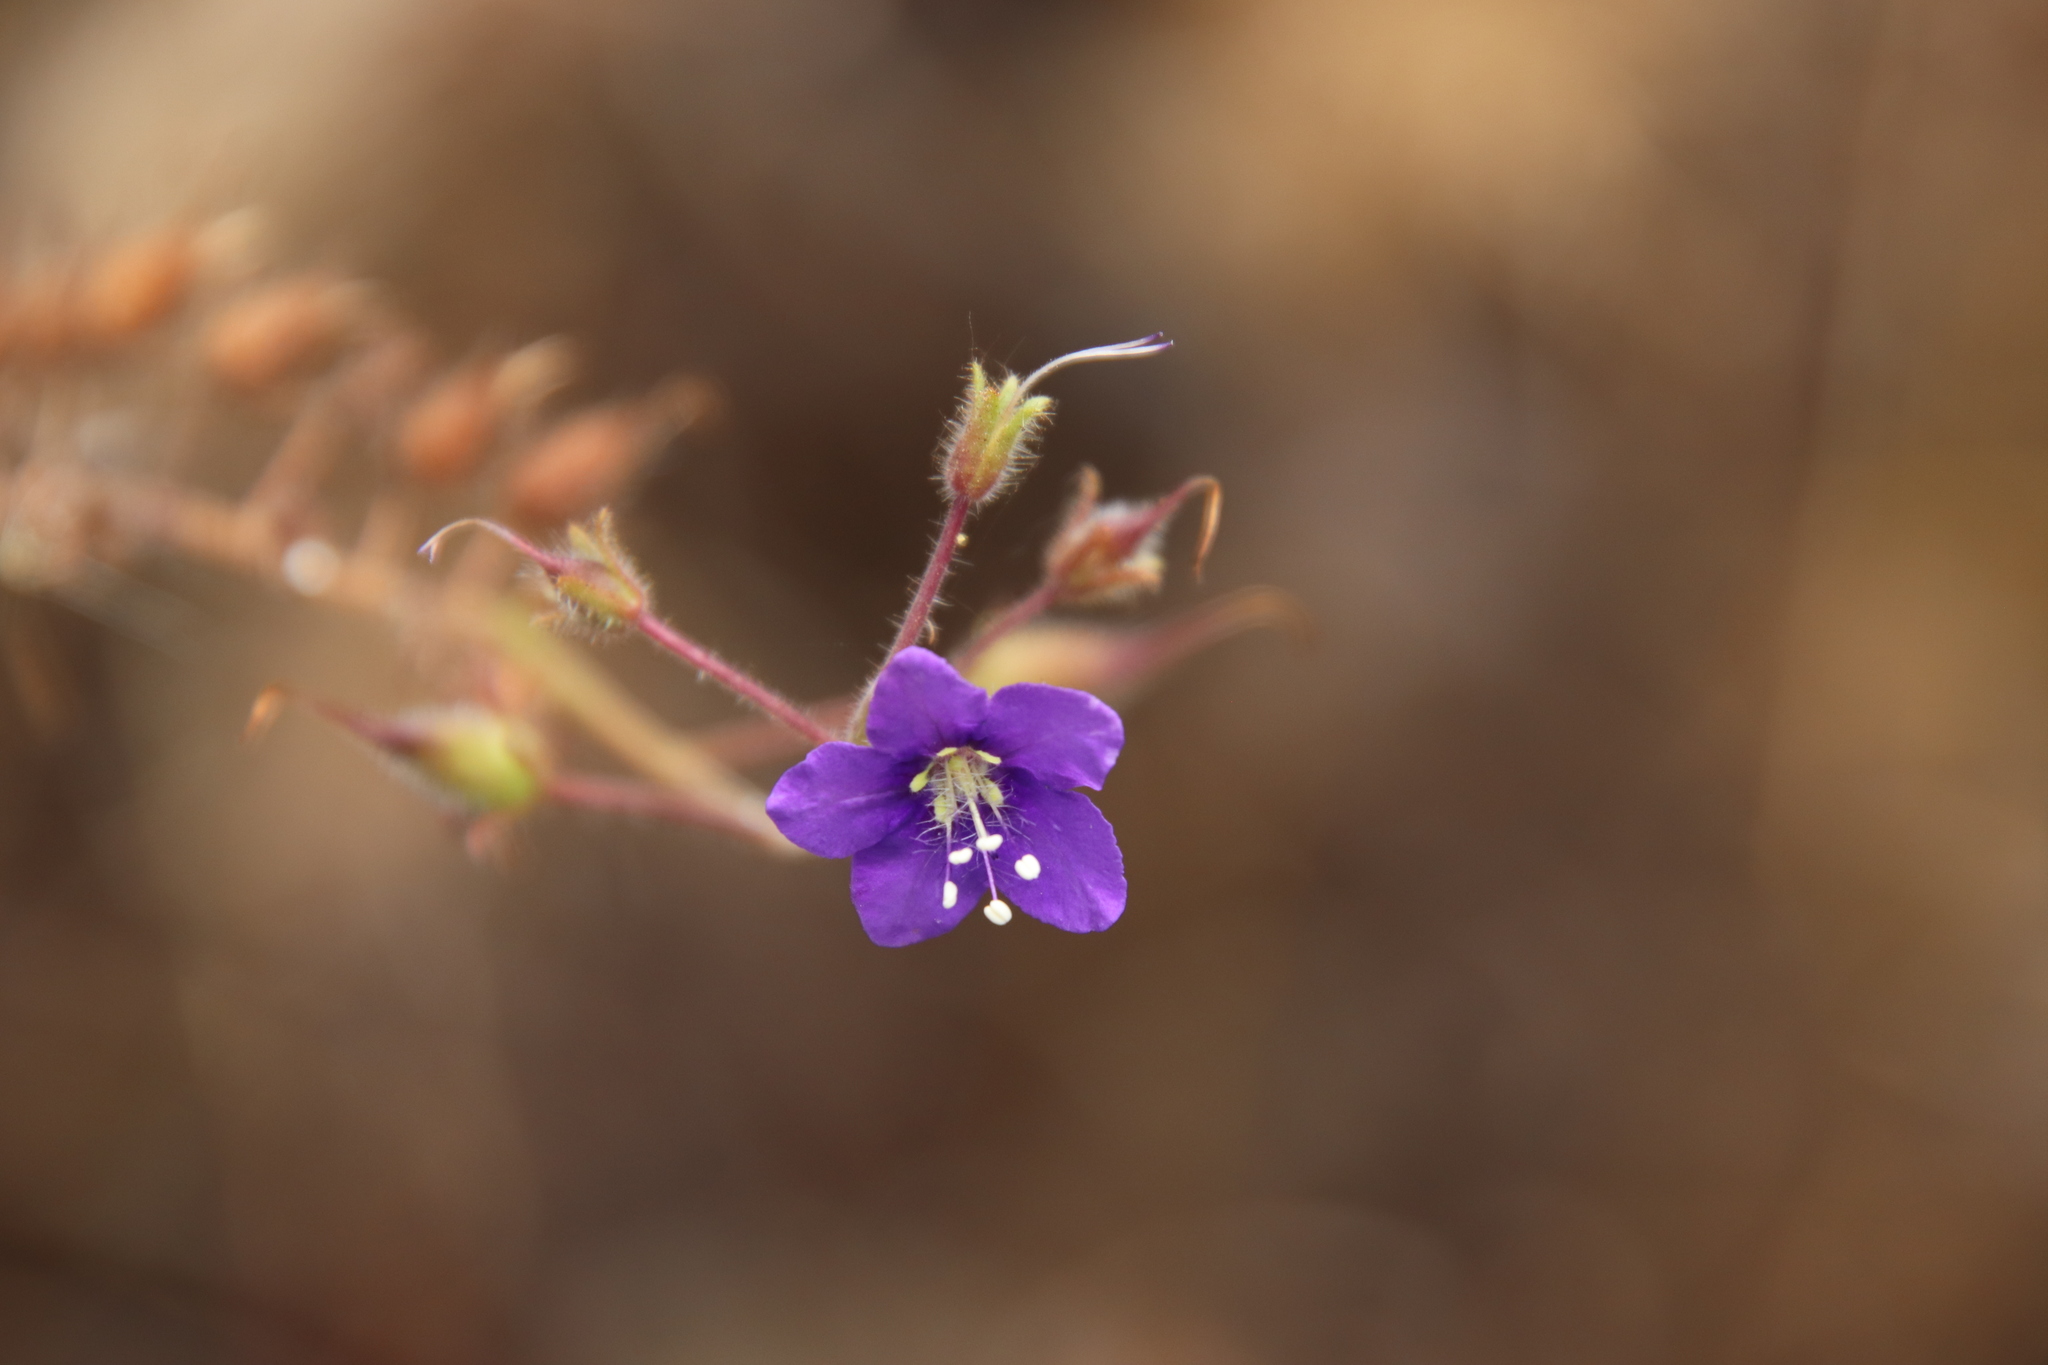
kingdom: Plantae
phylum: Tracheophyta
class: Magnoliopsida
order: Boraginales
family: Hydrophyllaceae
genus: Phacelia
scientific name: Phacelia parryi
